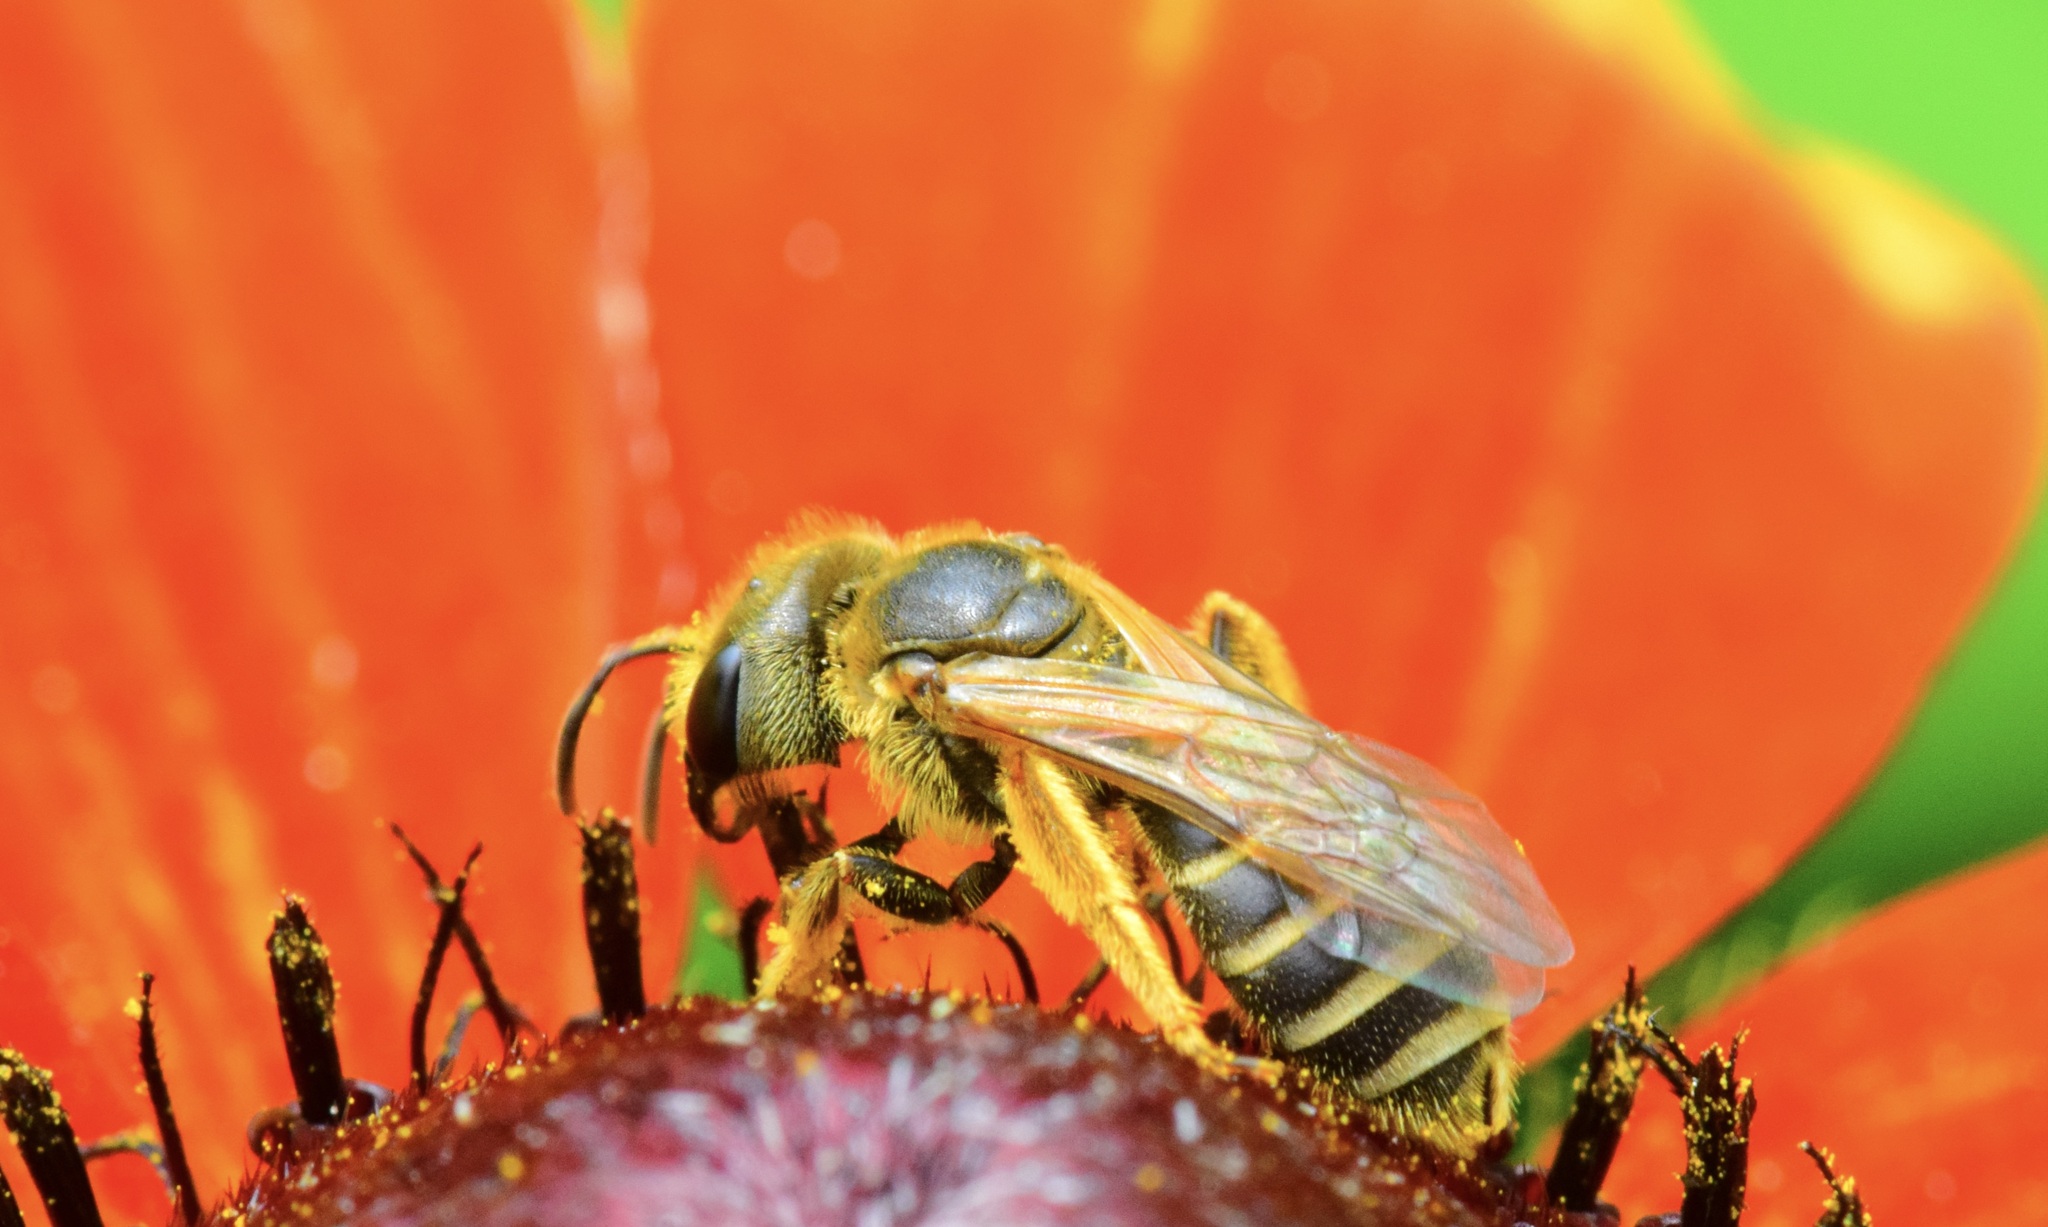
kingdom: Animalia
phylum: Arthropoda
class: Insecta
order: Hymenoptera
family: Halictidae
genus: Halictus
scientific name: Halictus ligatus
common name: Ligated furrow bee
